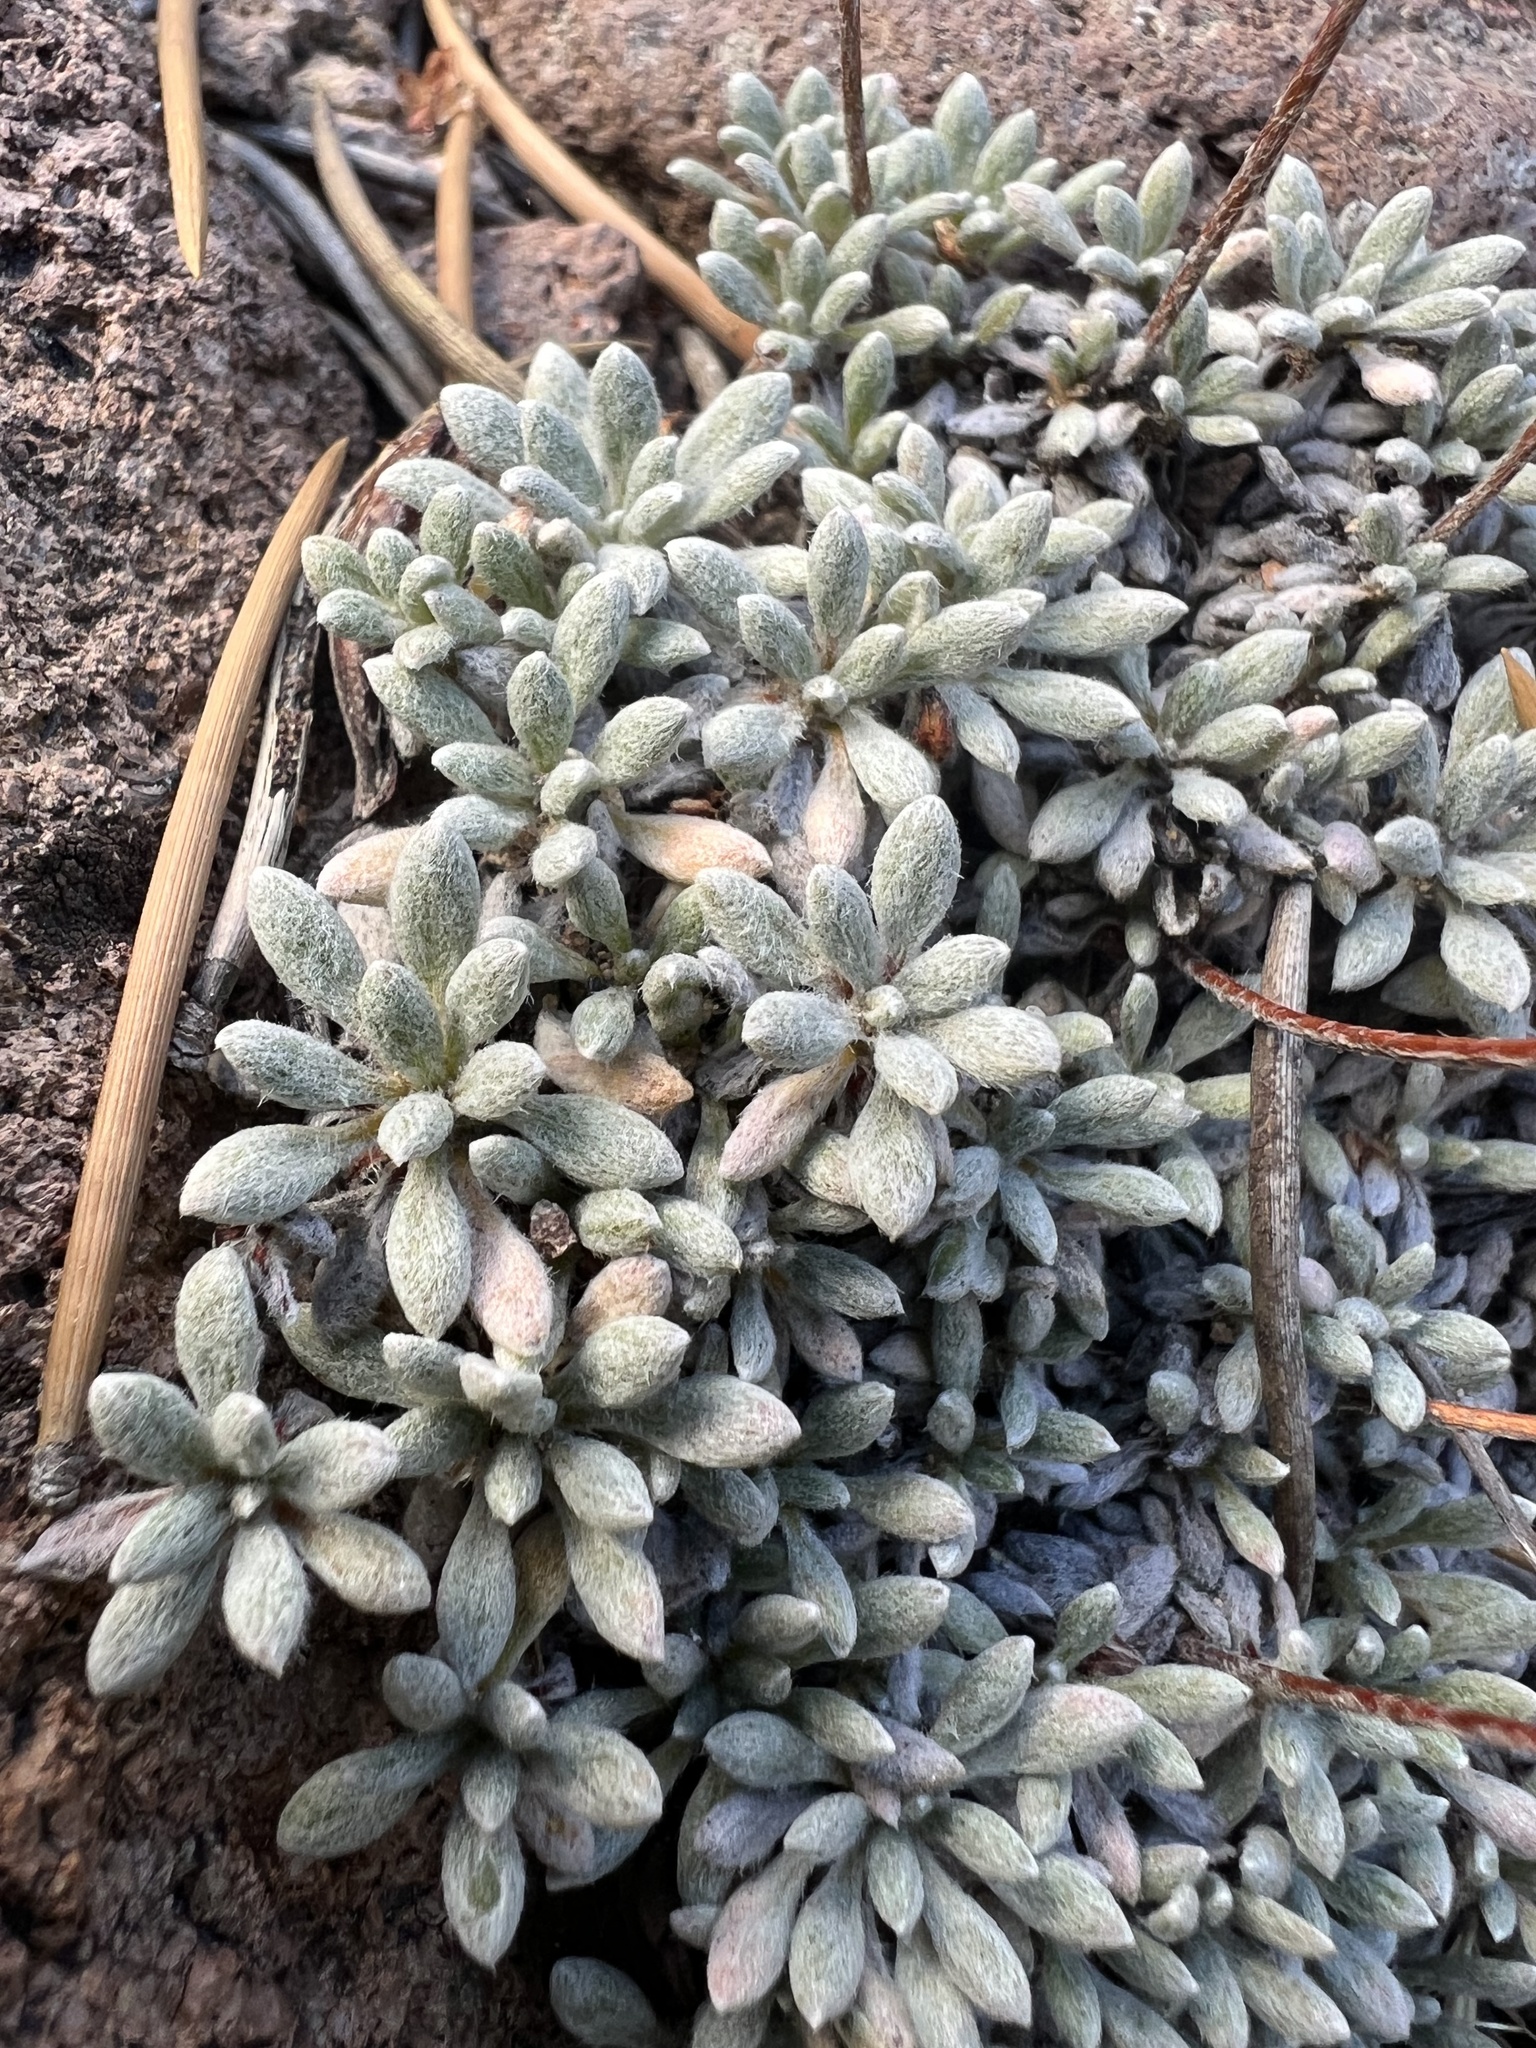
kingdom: Plantae
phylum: Tracheophyta
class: Magnoliopsida
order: Caryophyllales
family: Polygonaceae
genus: Eriogonum
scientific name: Eriogonum caespitosum
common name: Matted wild buckwheat
